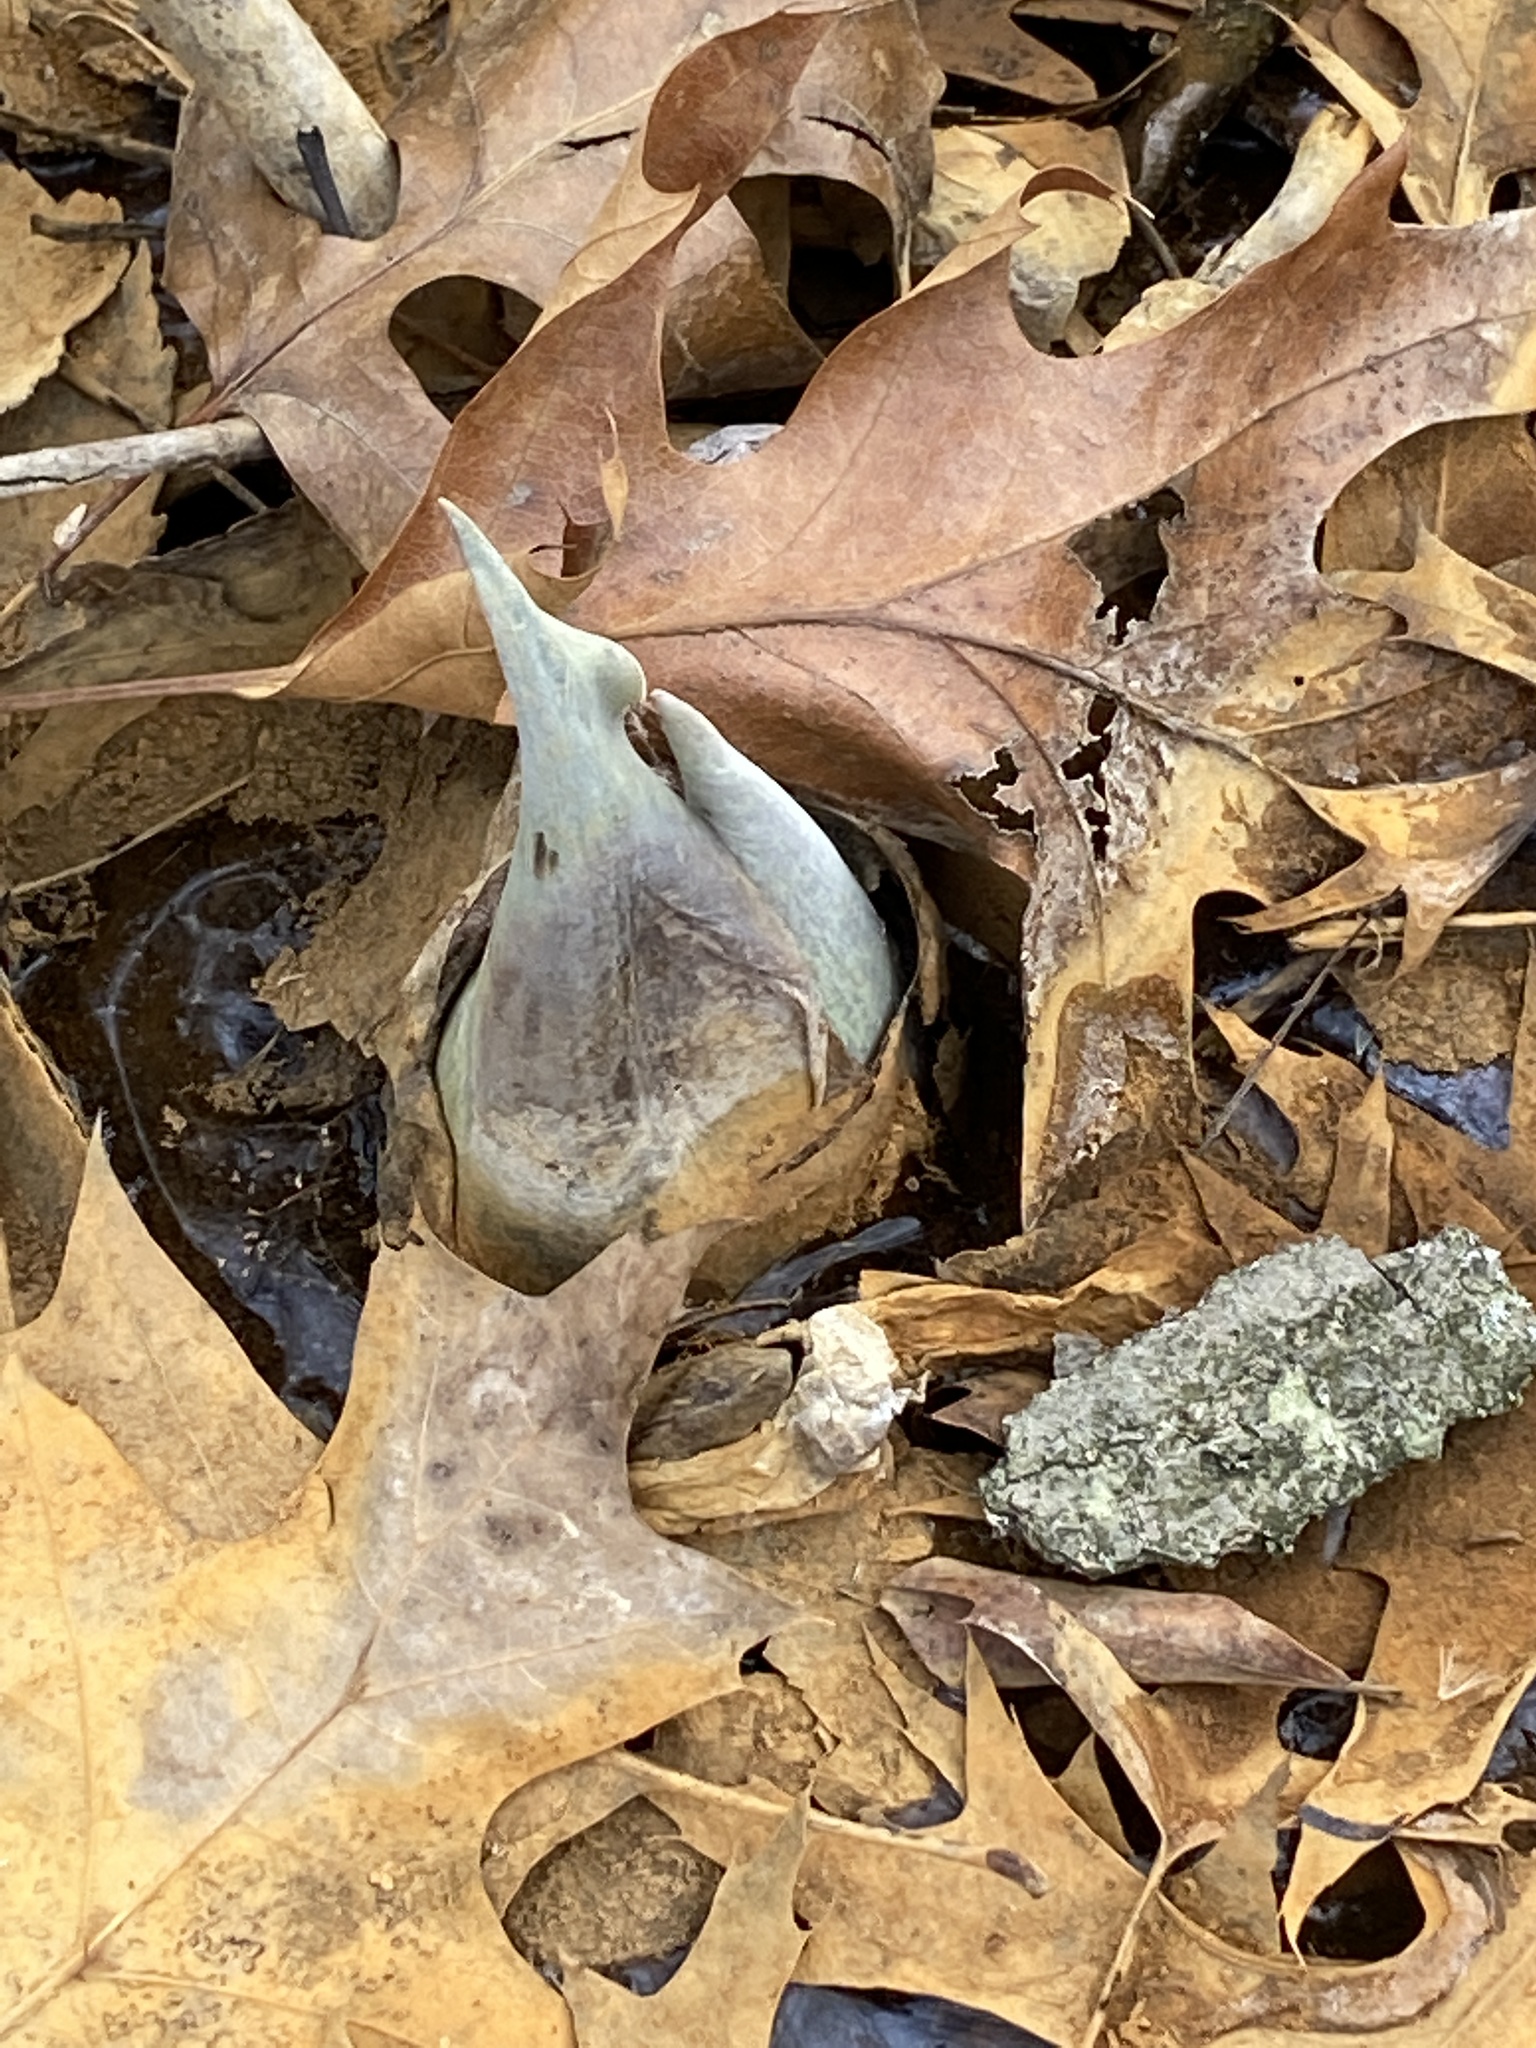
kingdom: Plantae
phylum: Tracheophyta
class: Liliopsida
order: Alismatales
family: Araceae
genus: Symplocarpus
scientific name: Symplocarpus foetidus
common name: Eastern skunk cabbage
